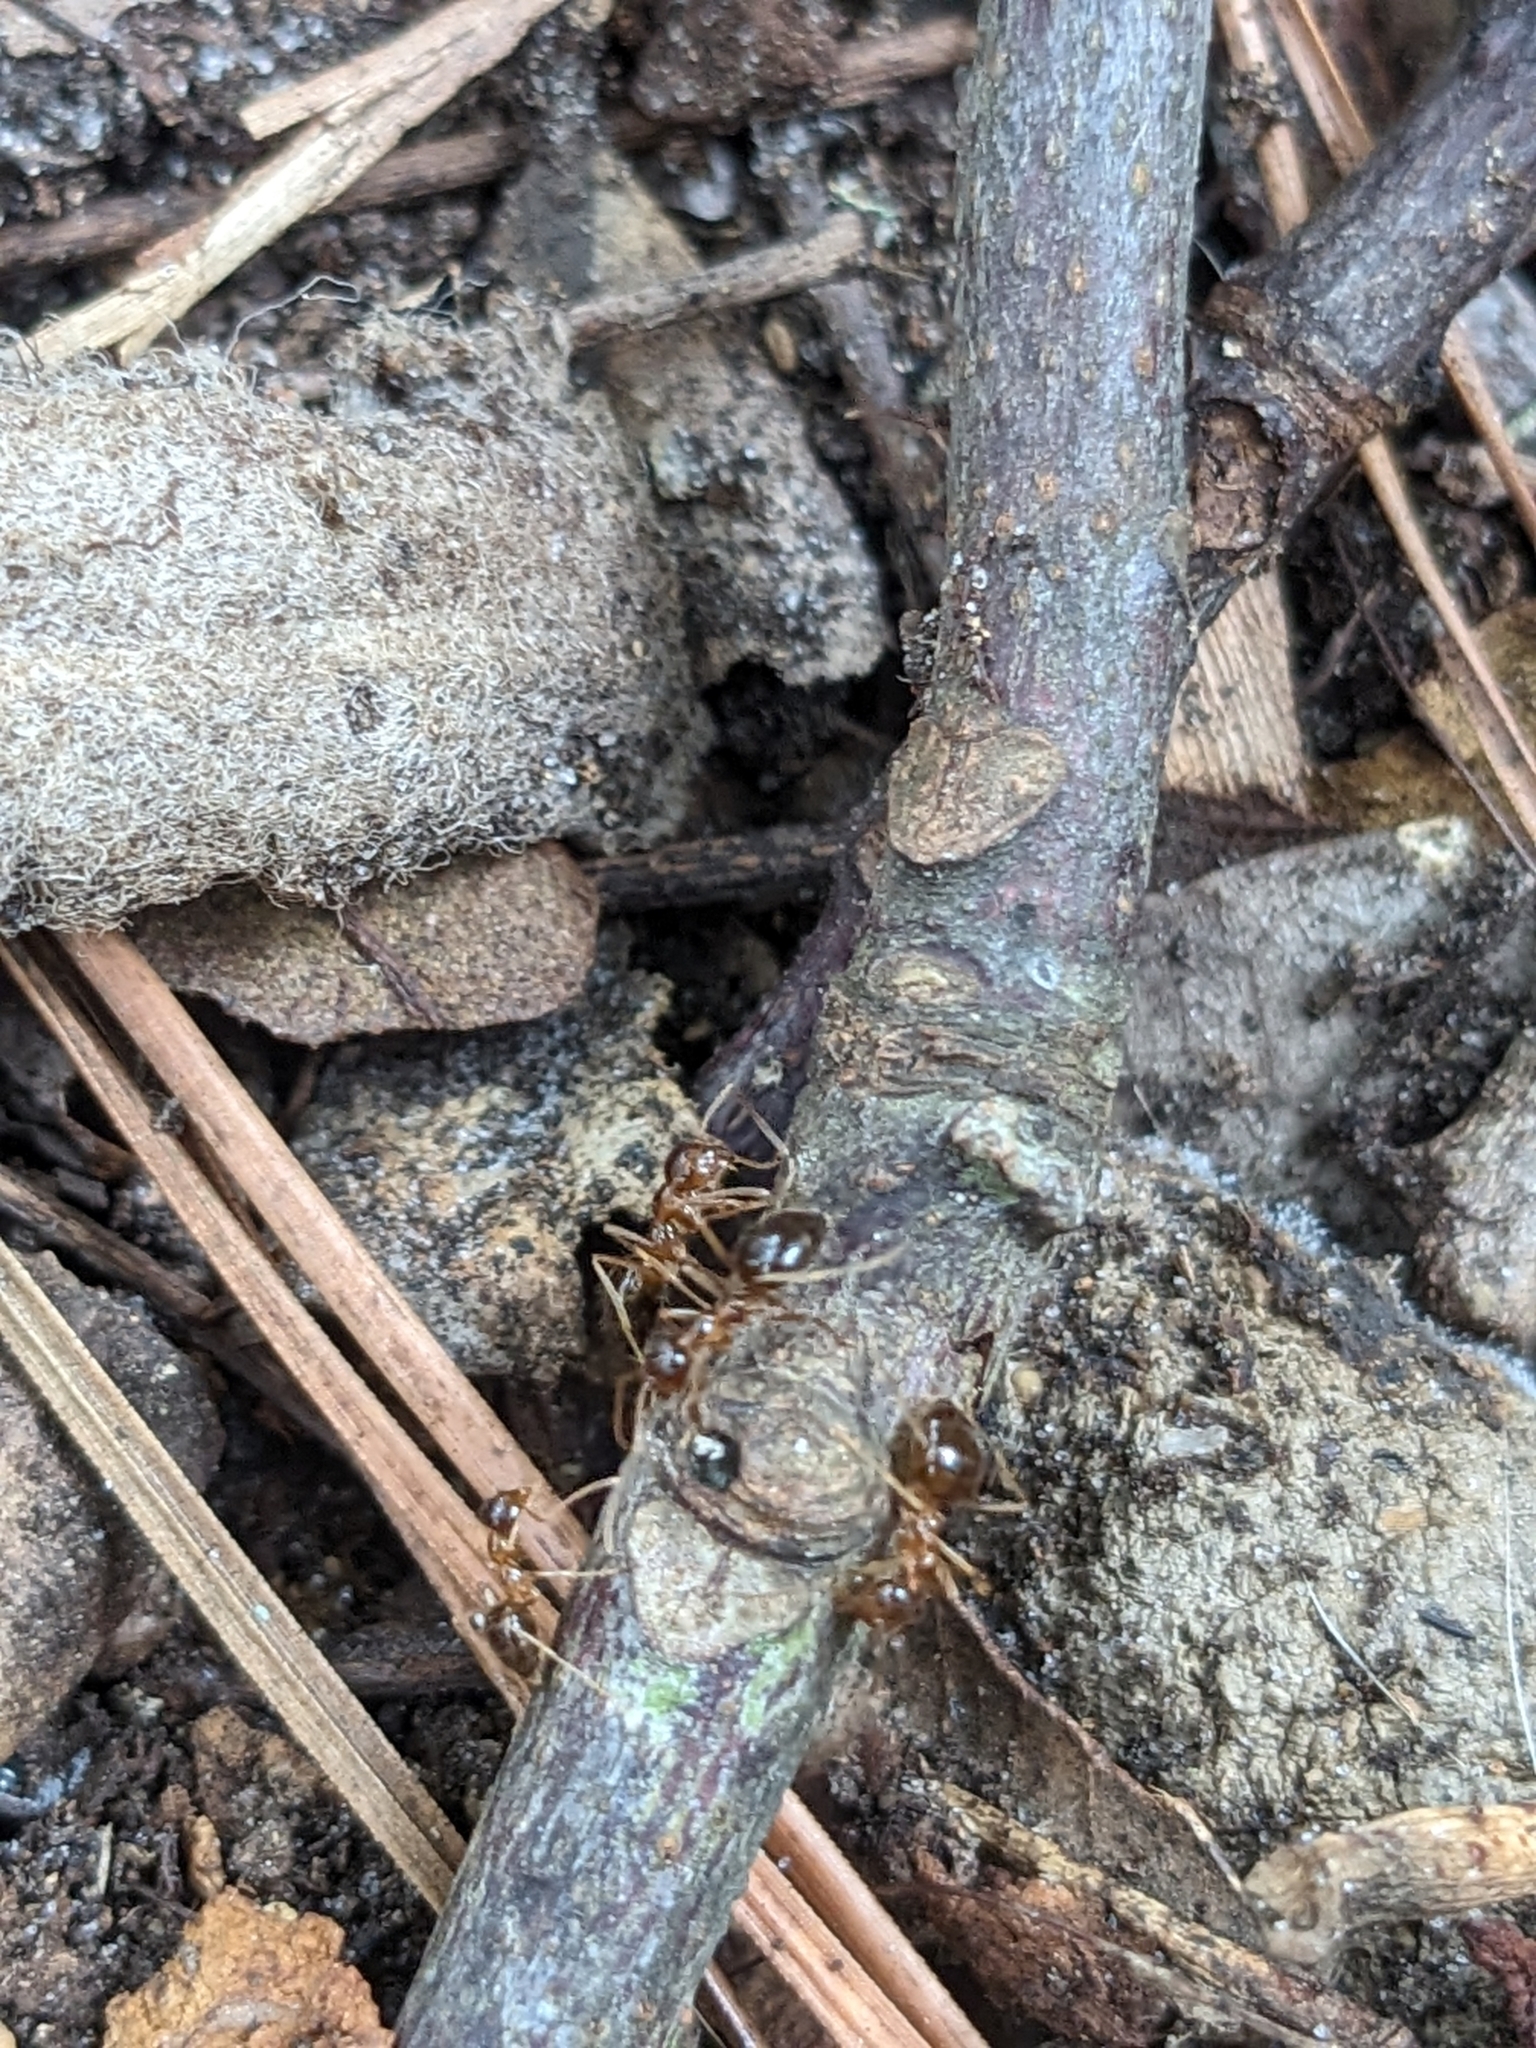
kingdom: Animalia
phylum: Arthropoda
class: Insecta
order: Hymenoptera
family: Formicidae
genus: Prenolepis
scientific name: Prenolepis imparis
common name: Small honey ant
